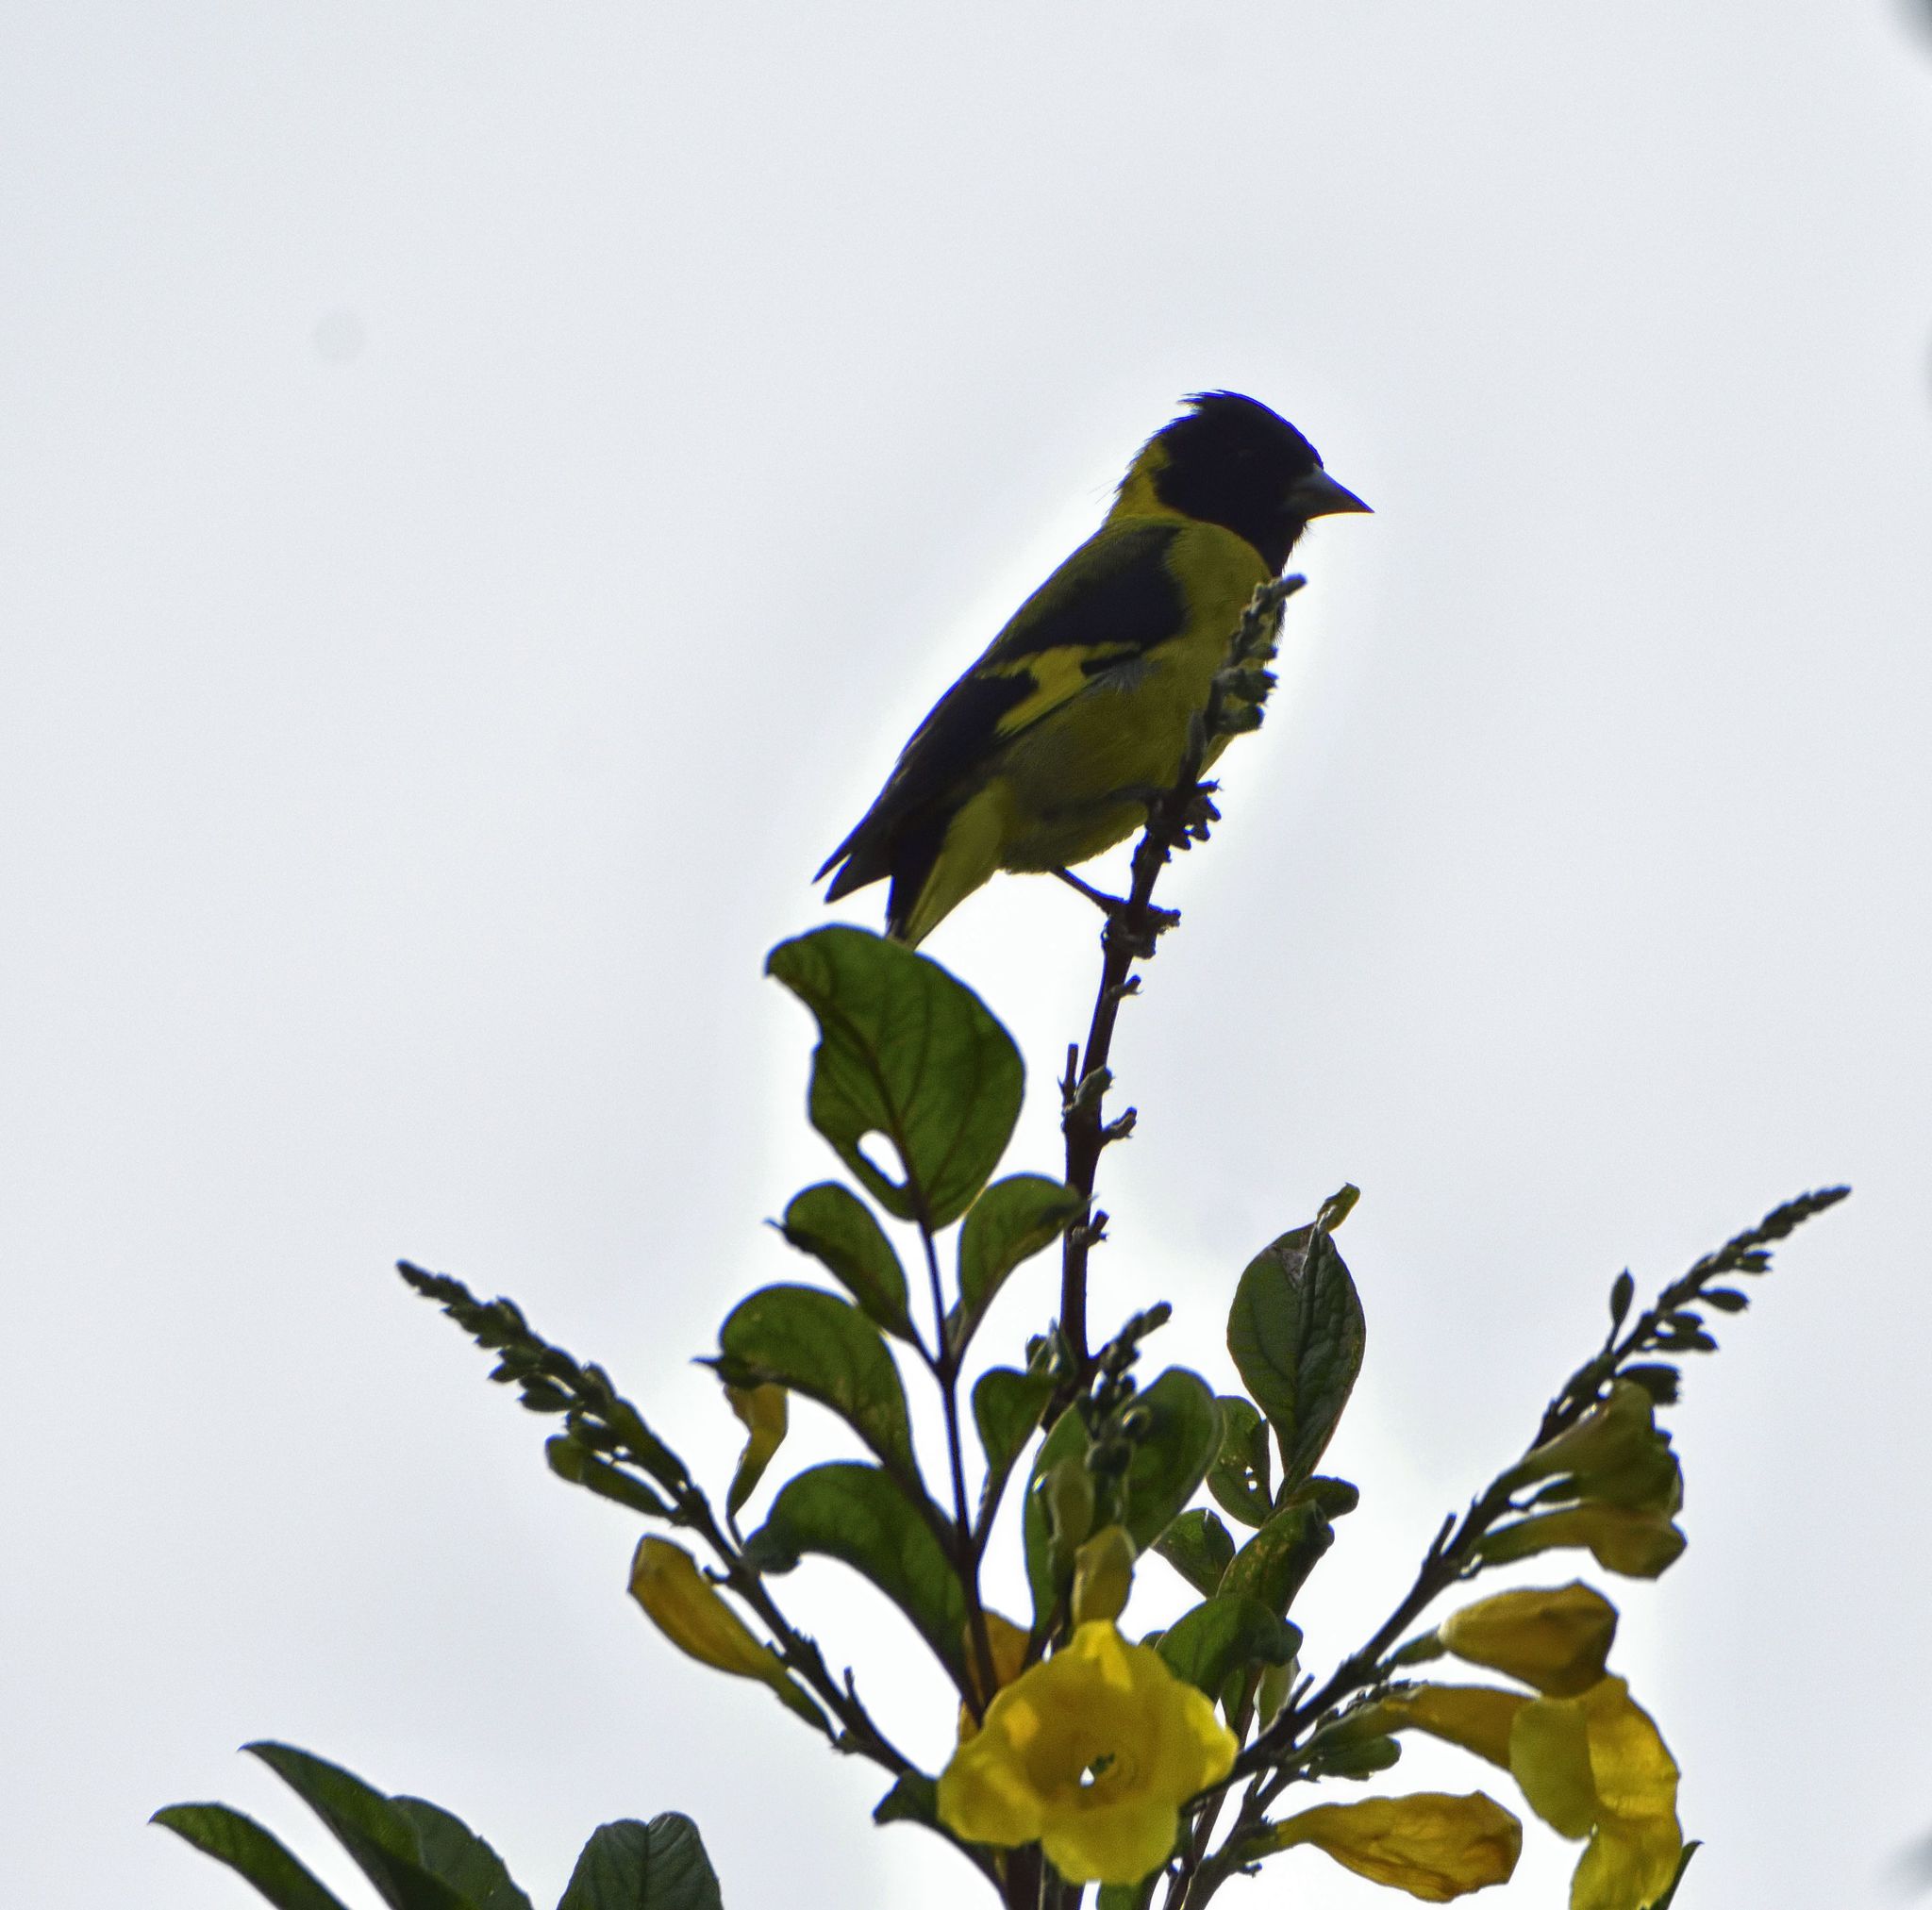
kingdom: Animalia
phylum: Chordata
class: Aves
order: Passeriformes
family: Fringillidae
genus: Spinus
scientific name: Spinus notatus
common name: Black-headed siskin
